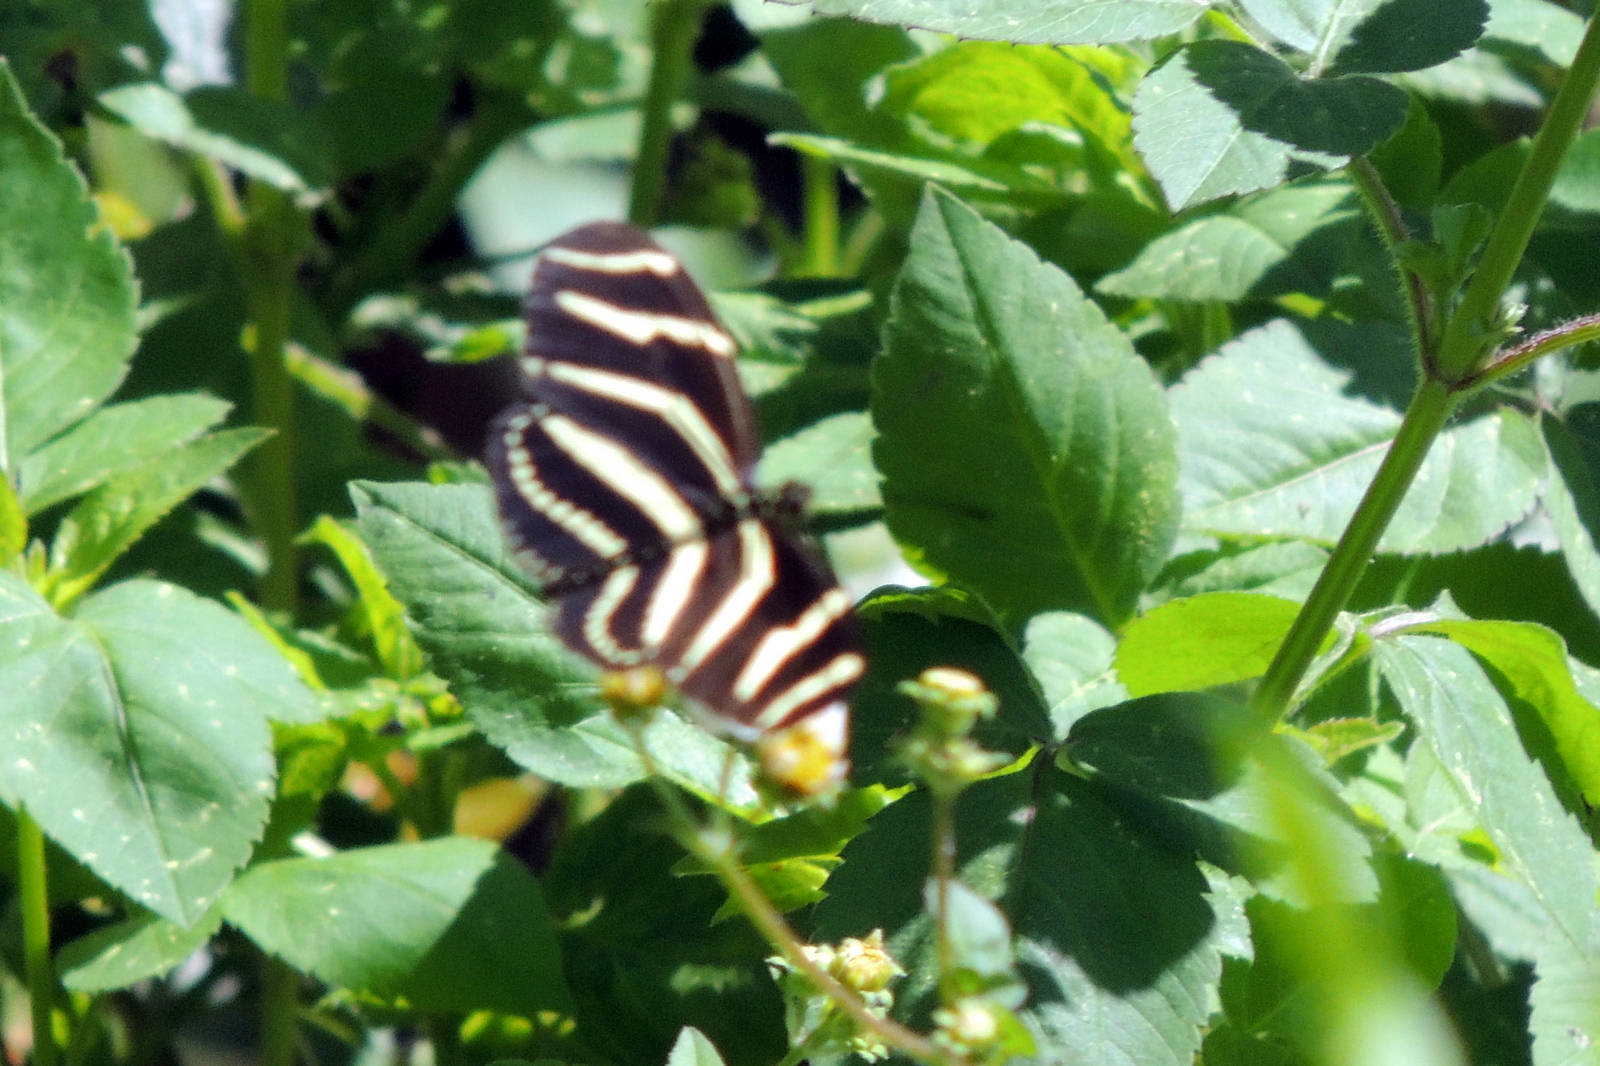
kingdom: Animalia
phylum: Arthropoda
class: Insecta
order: Lepidoptera
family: Nymphalidae
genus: Heliconius
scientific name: Heliconius charithonia
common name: Zebra long wing
